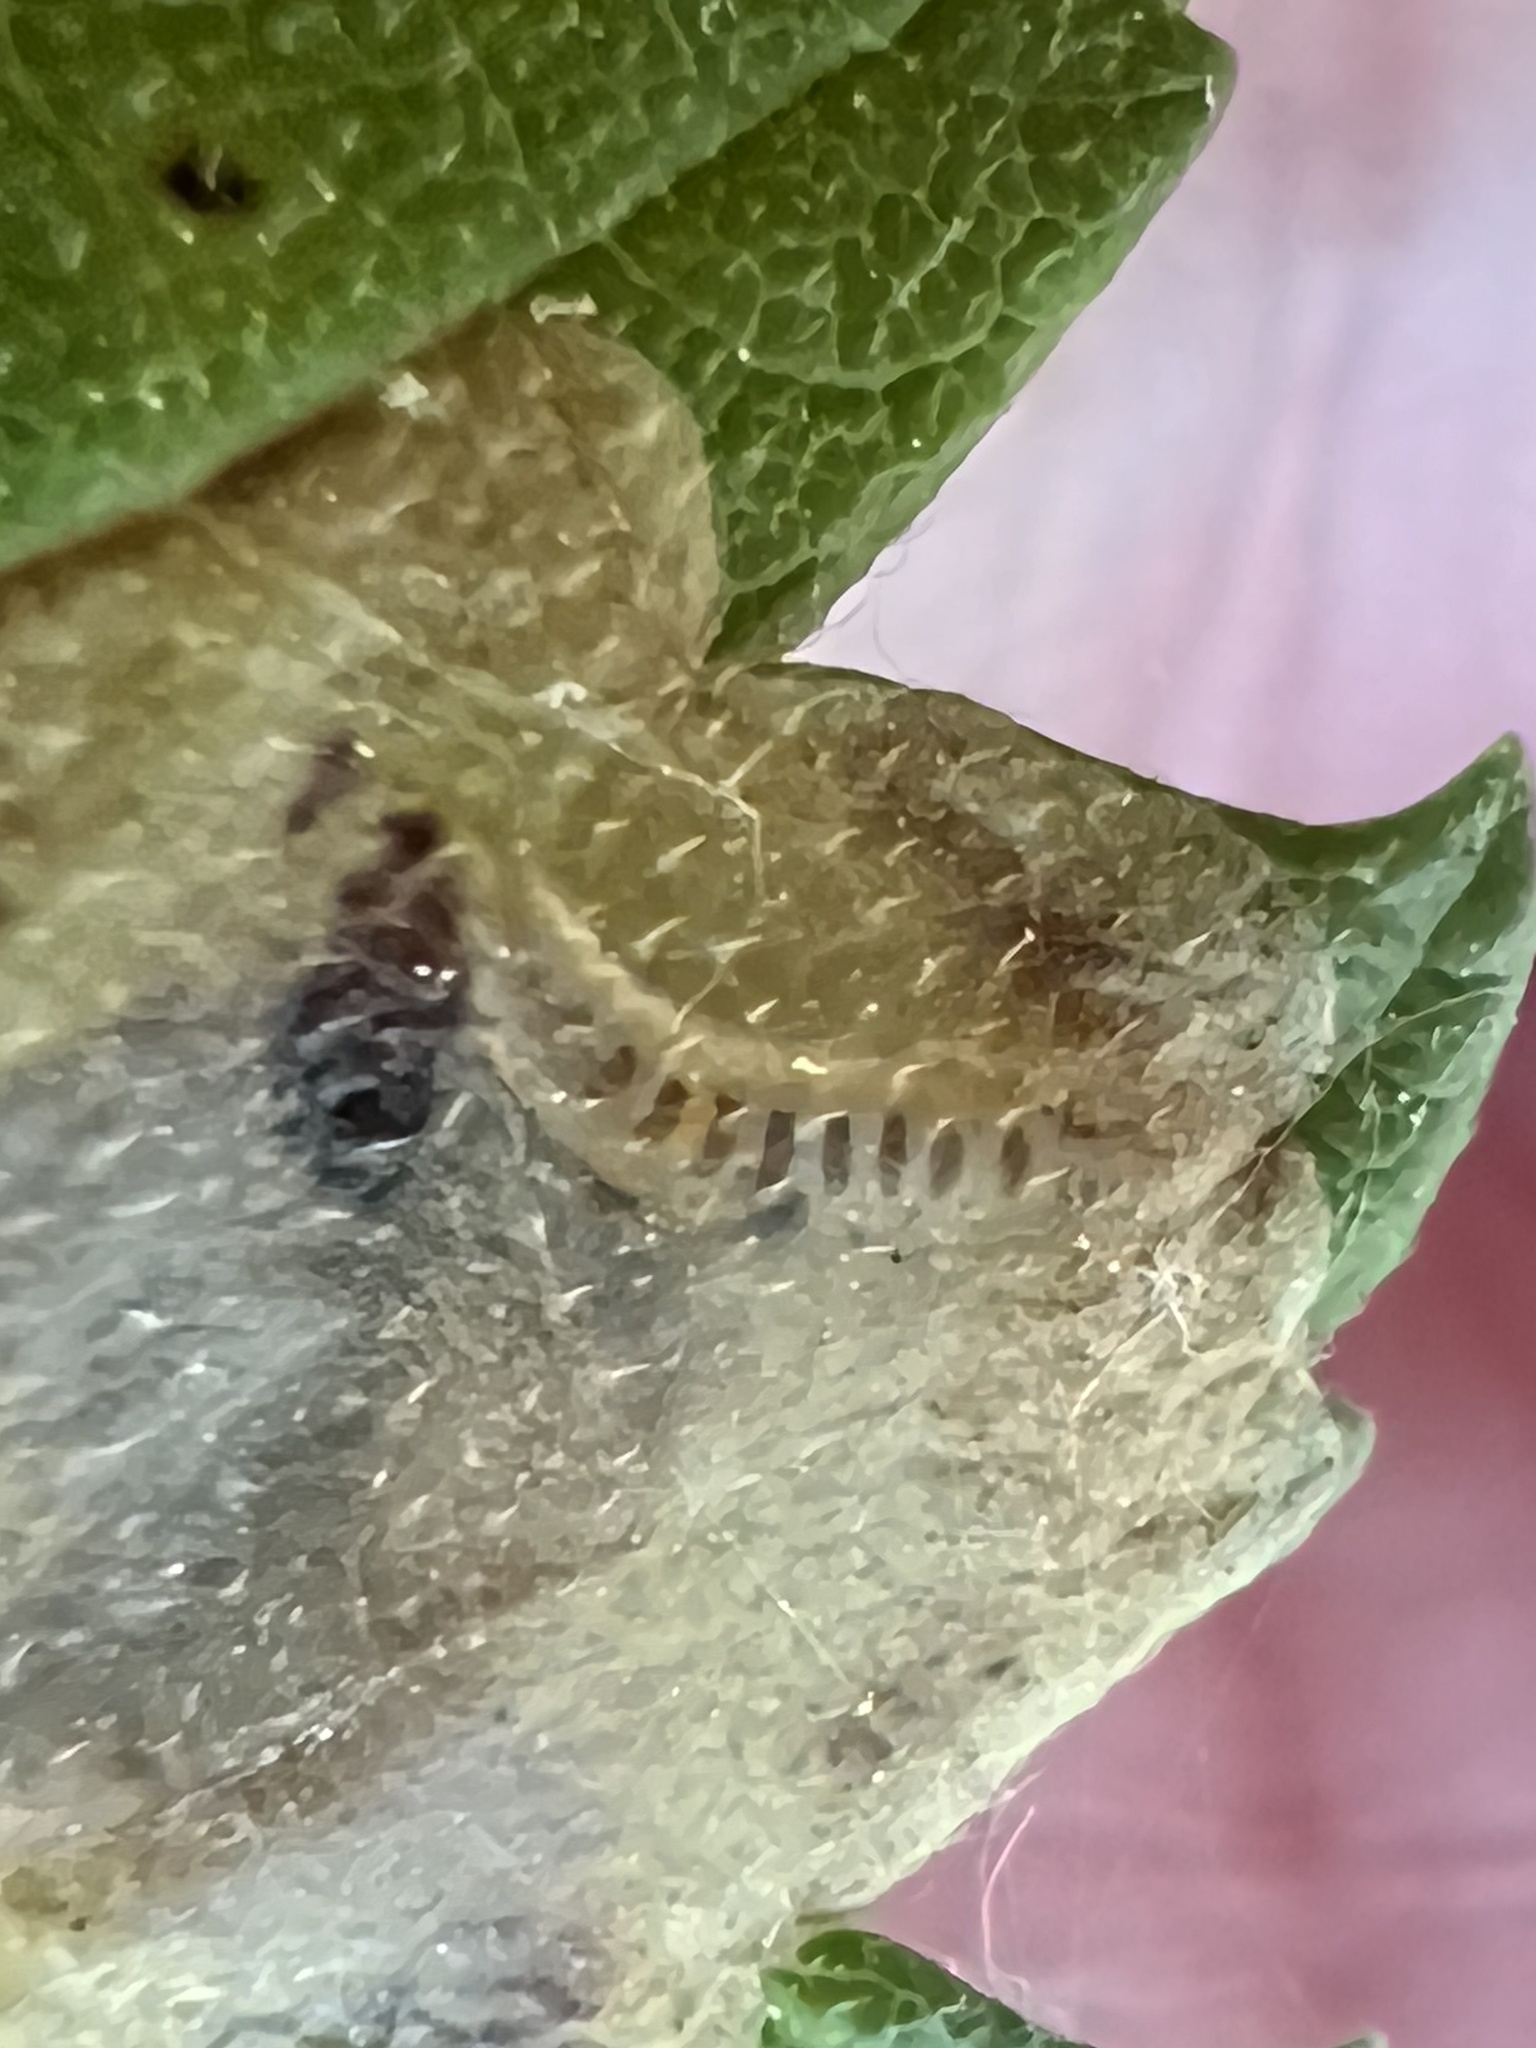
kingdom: Animalia
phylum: Arthropoda
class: Insecta
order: Lepidoptera
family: Gracillariidae
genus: Cameraria
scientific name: Cameraria ulmella
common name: Elm leafminer
